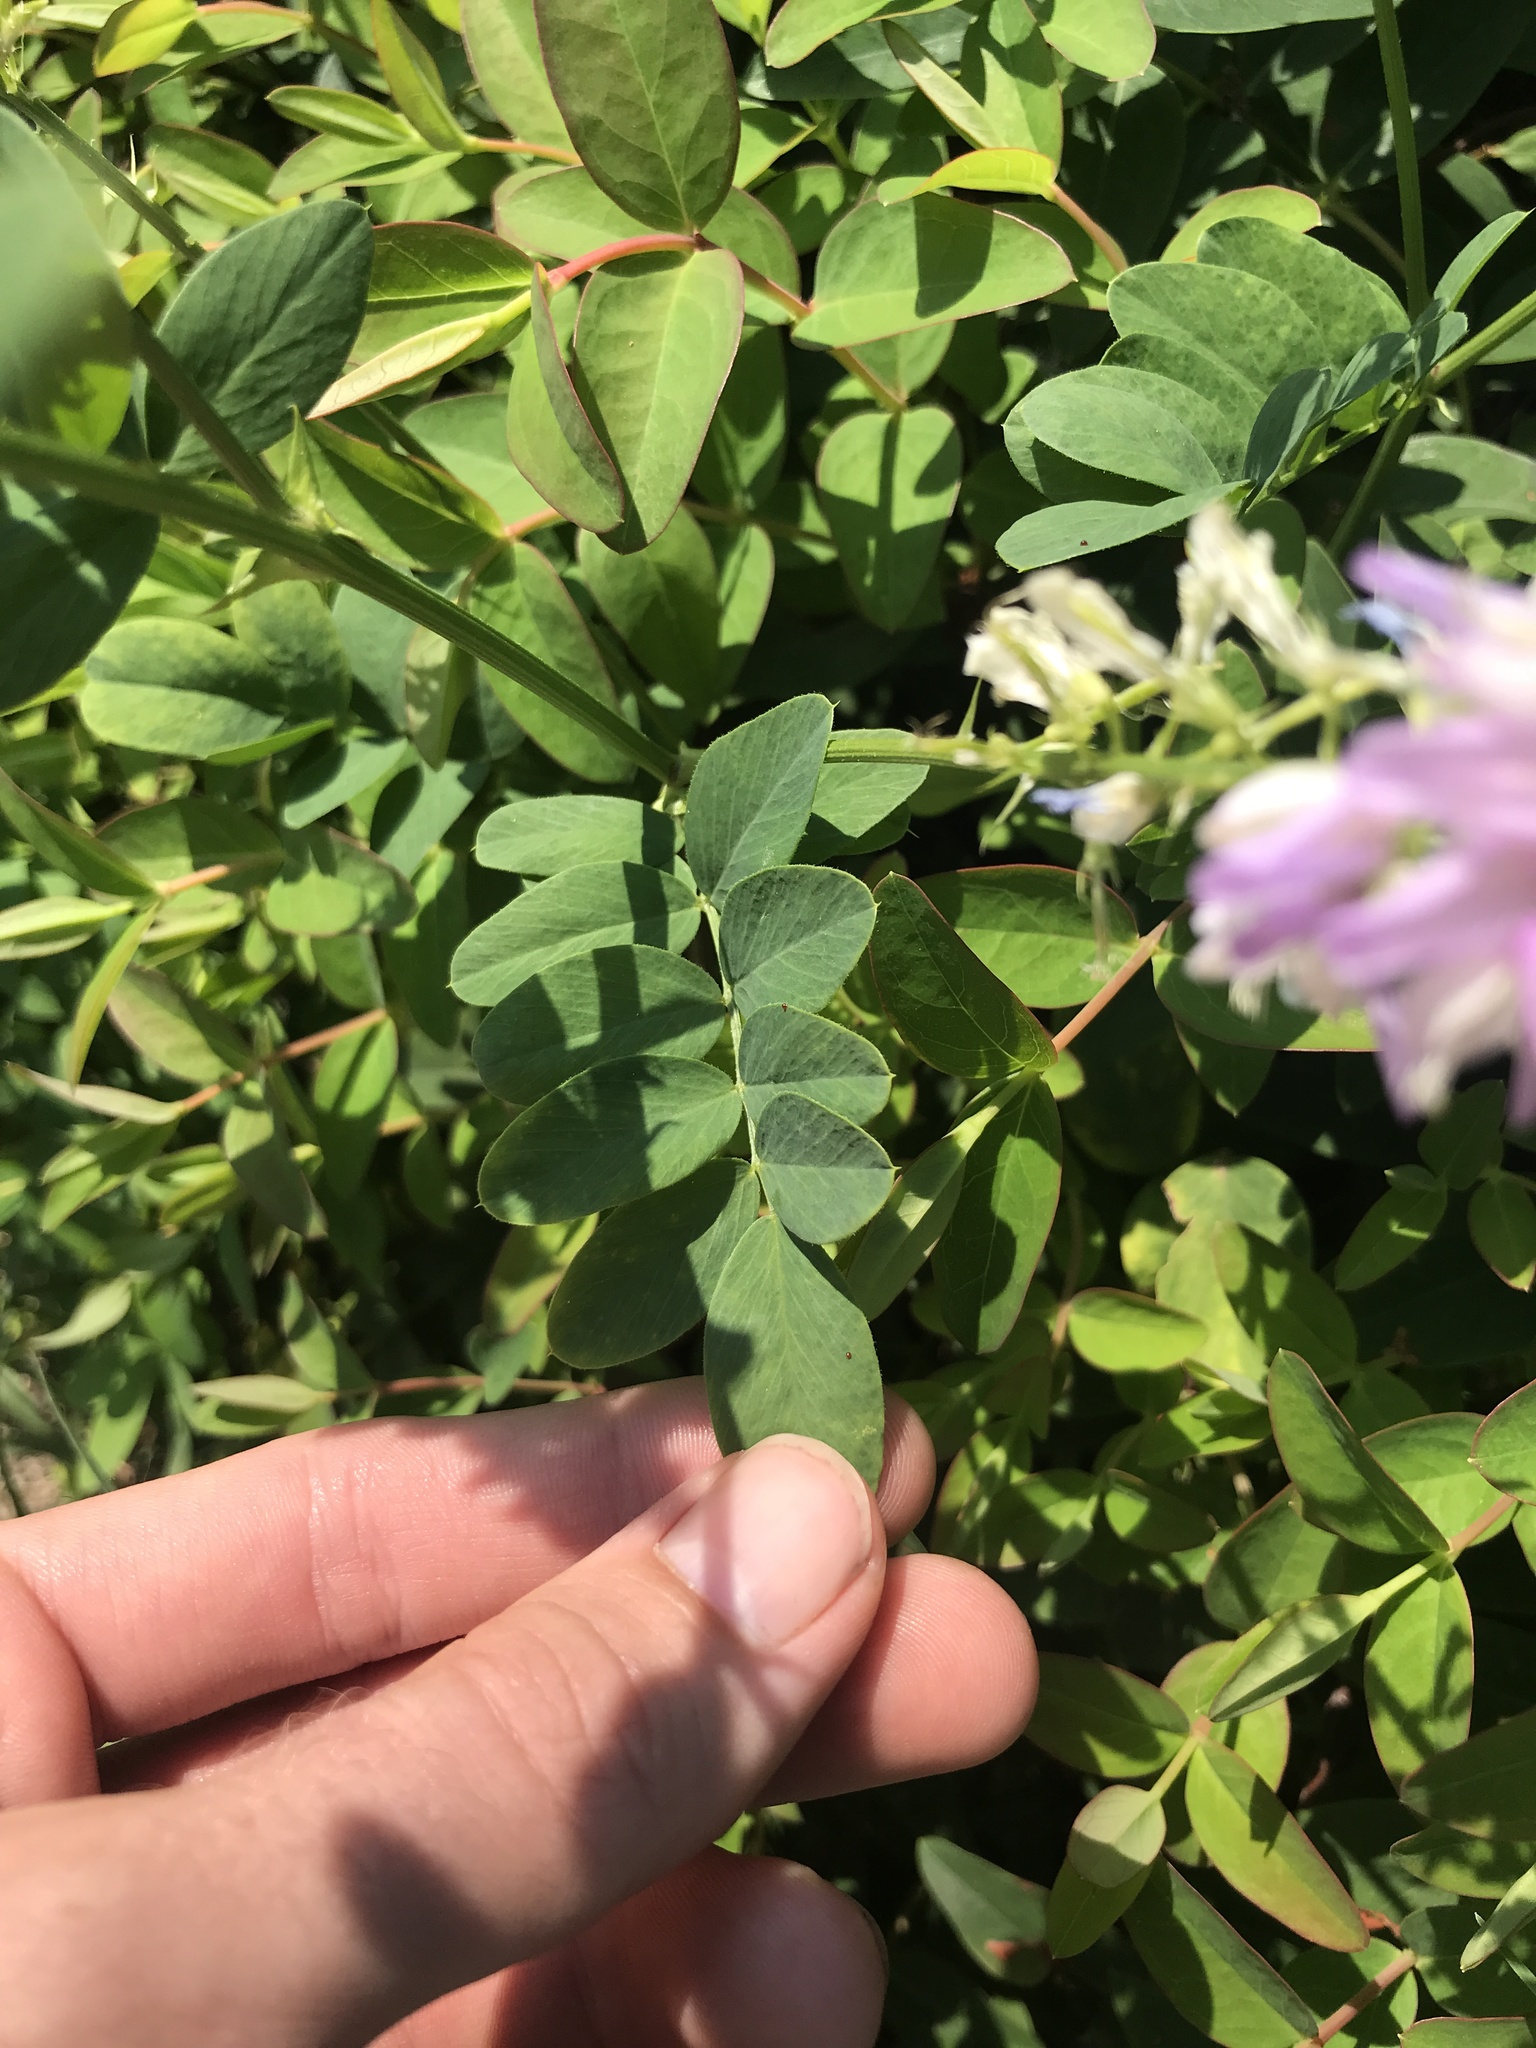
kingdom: Plantae
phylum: Tracheophyta
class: Magnoliopsida
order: Fabales
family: Fabaceae
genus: Galega
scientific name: Galega officinalis
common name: Goat's-rue
